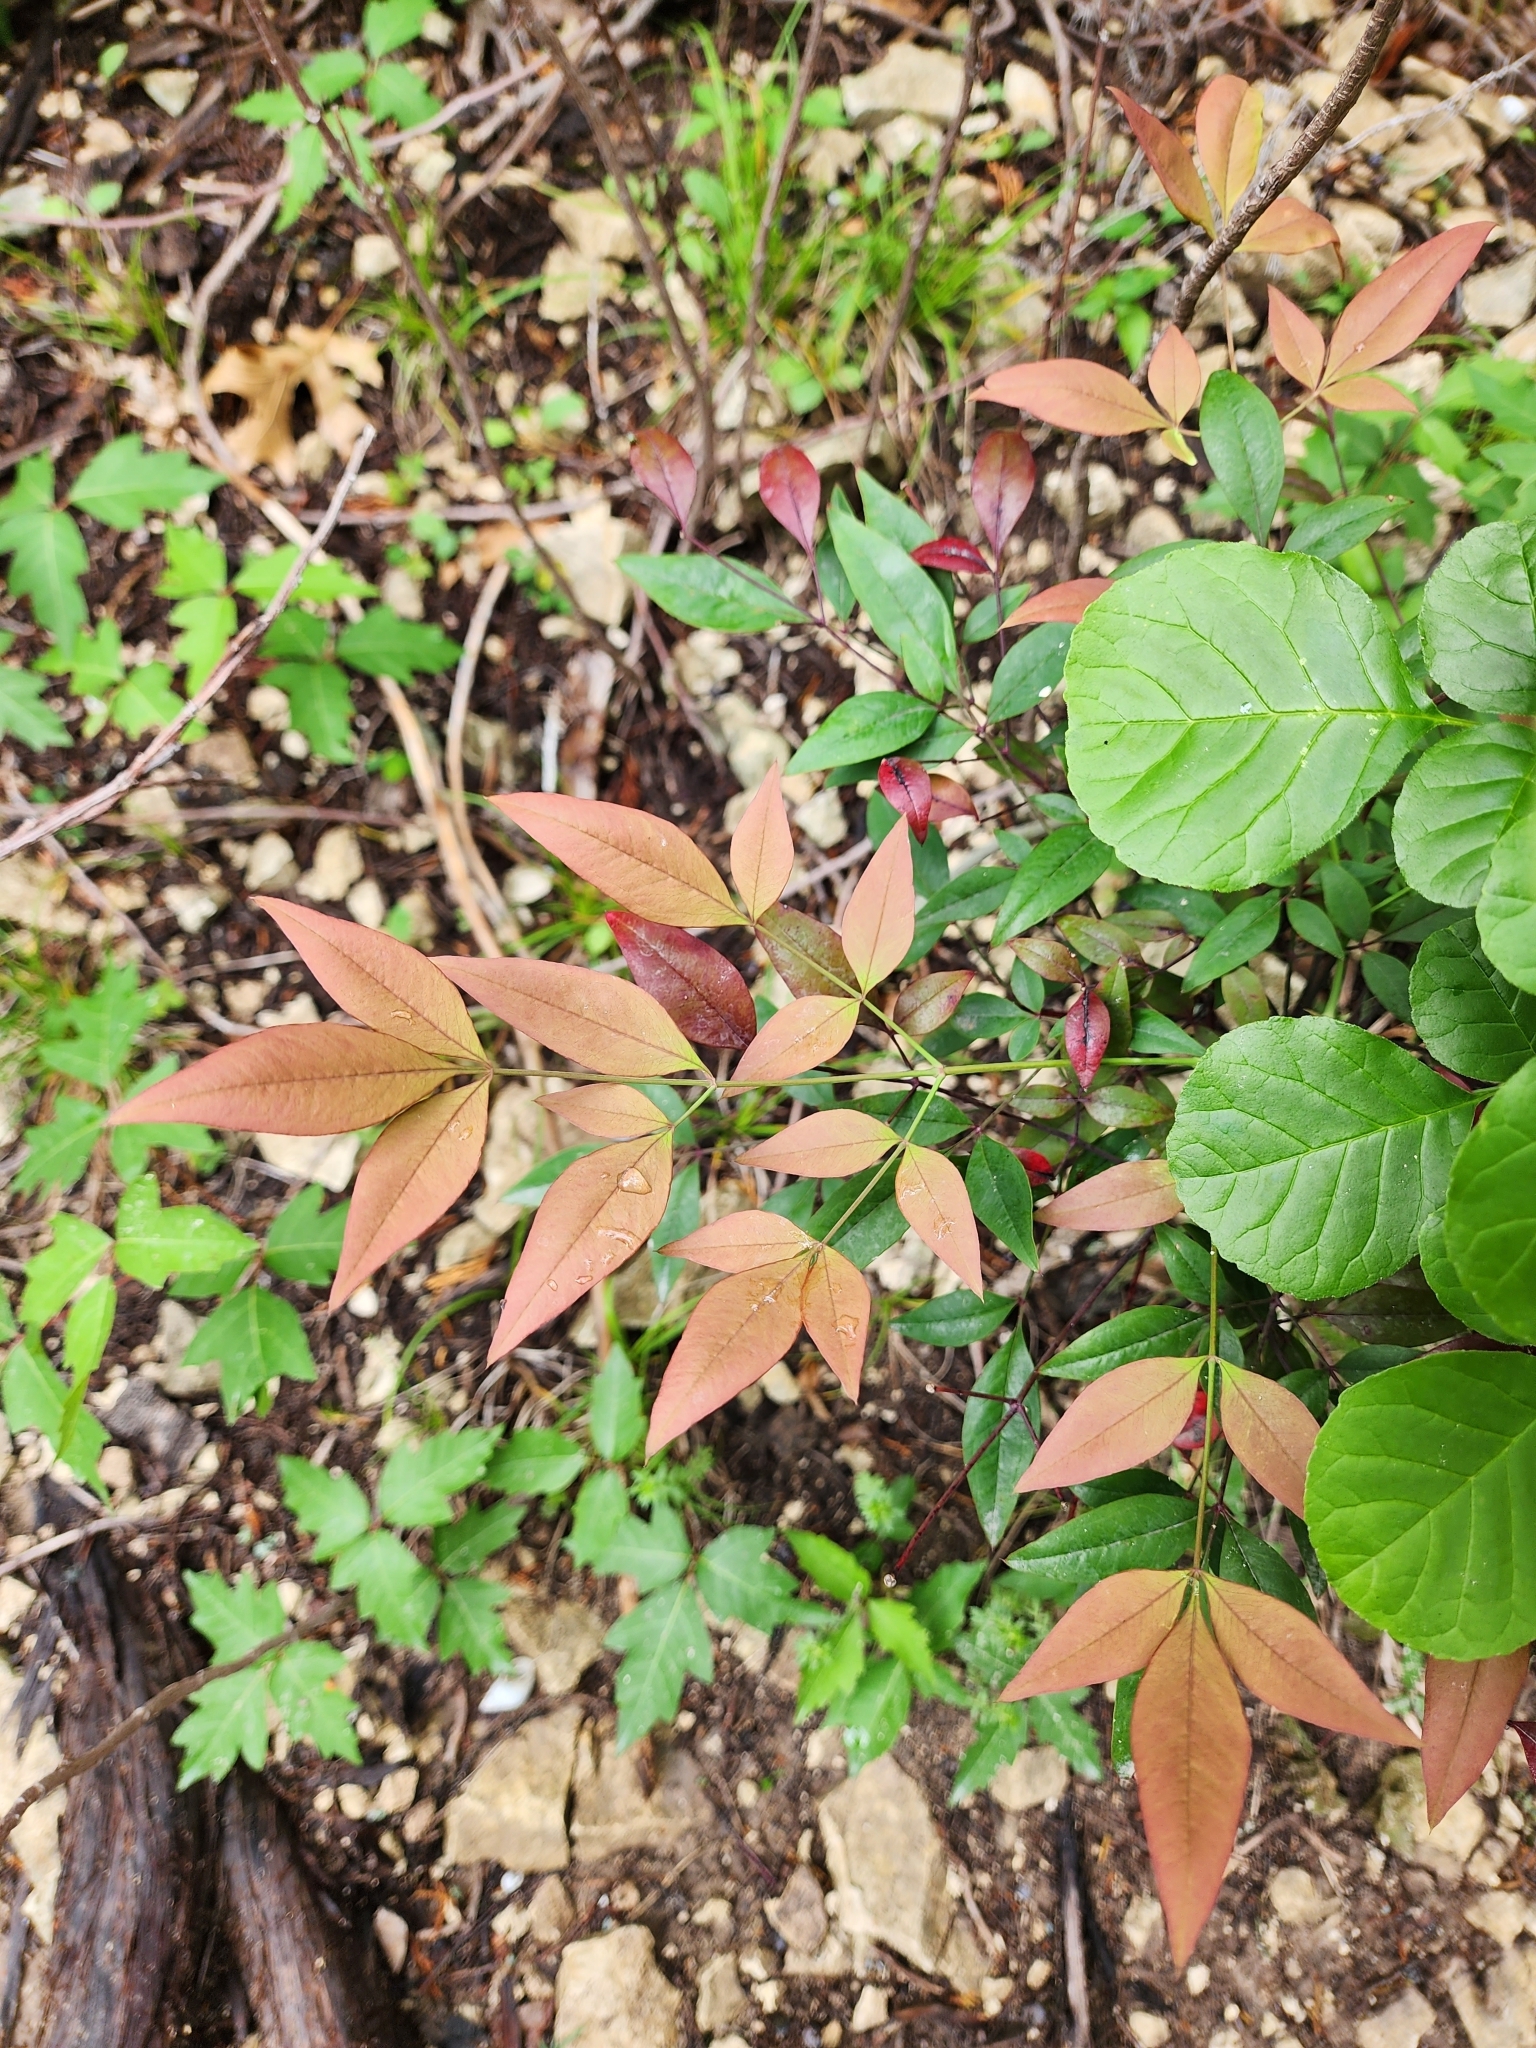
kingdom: Plantae
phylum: Tracheophyta
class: Magnoliopsida
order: Ranunculales
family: Berberidaceae
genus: Nandina
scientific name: Nandina domestica
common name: Sacred bamboo
